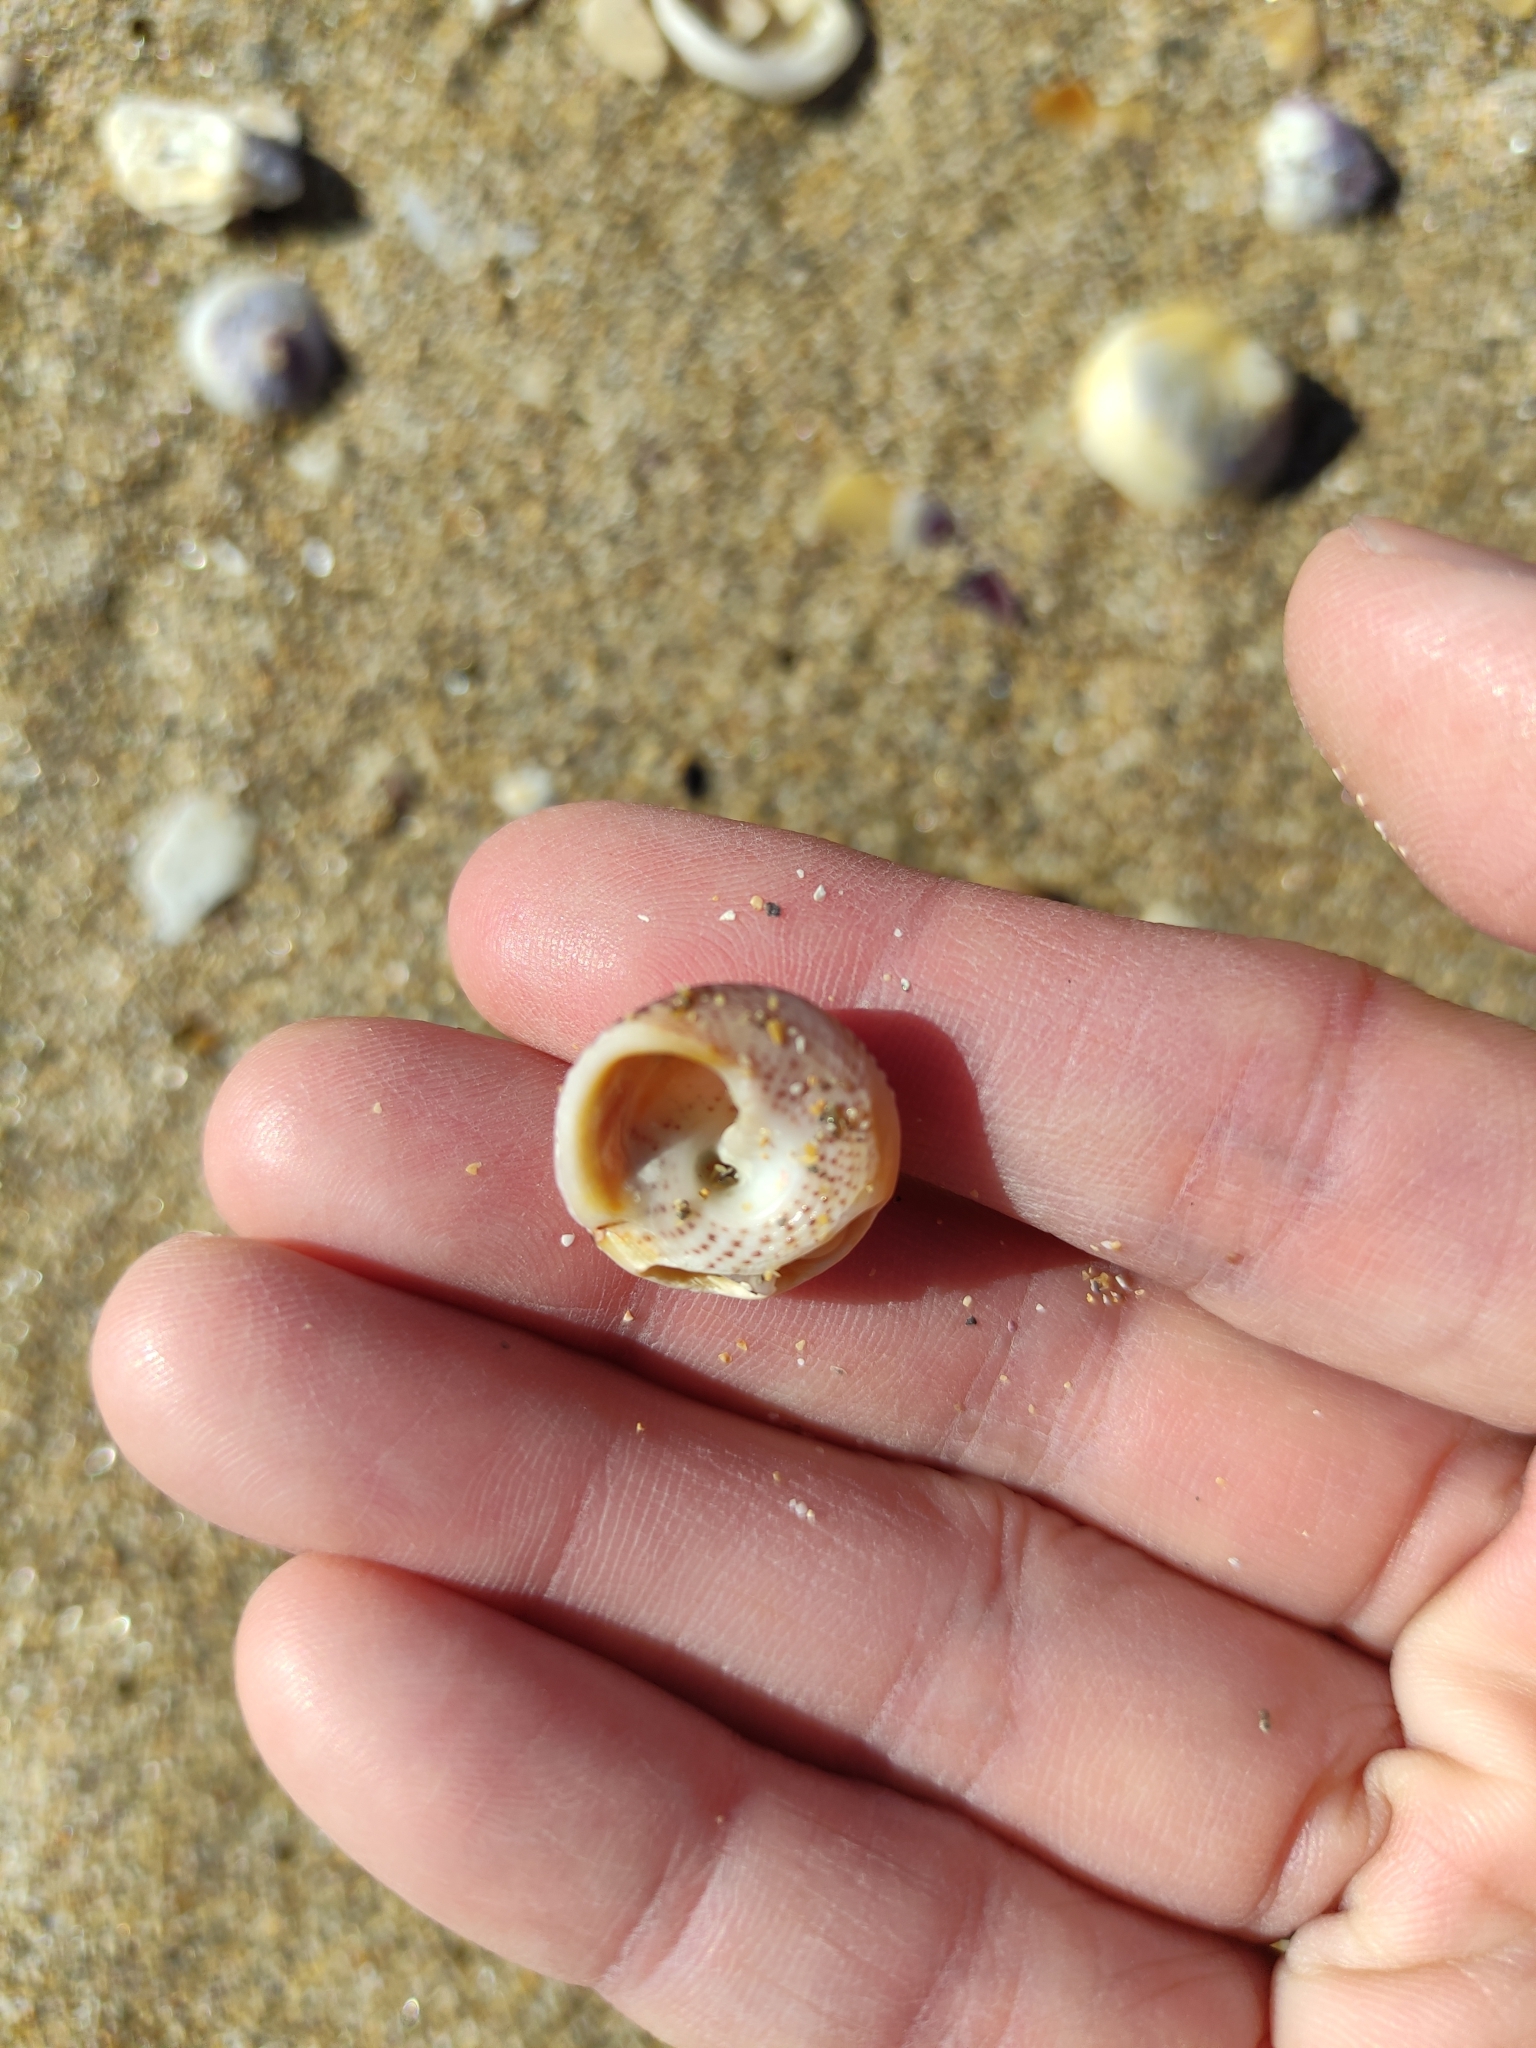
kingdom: Animalia
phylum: Mollusca
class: Gastropoda
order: Trochida
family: Trochidae
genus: Coelotrochus
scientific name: Coelotrochus tiaratus
